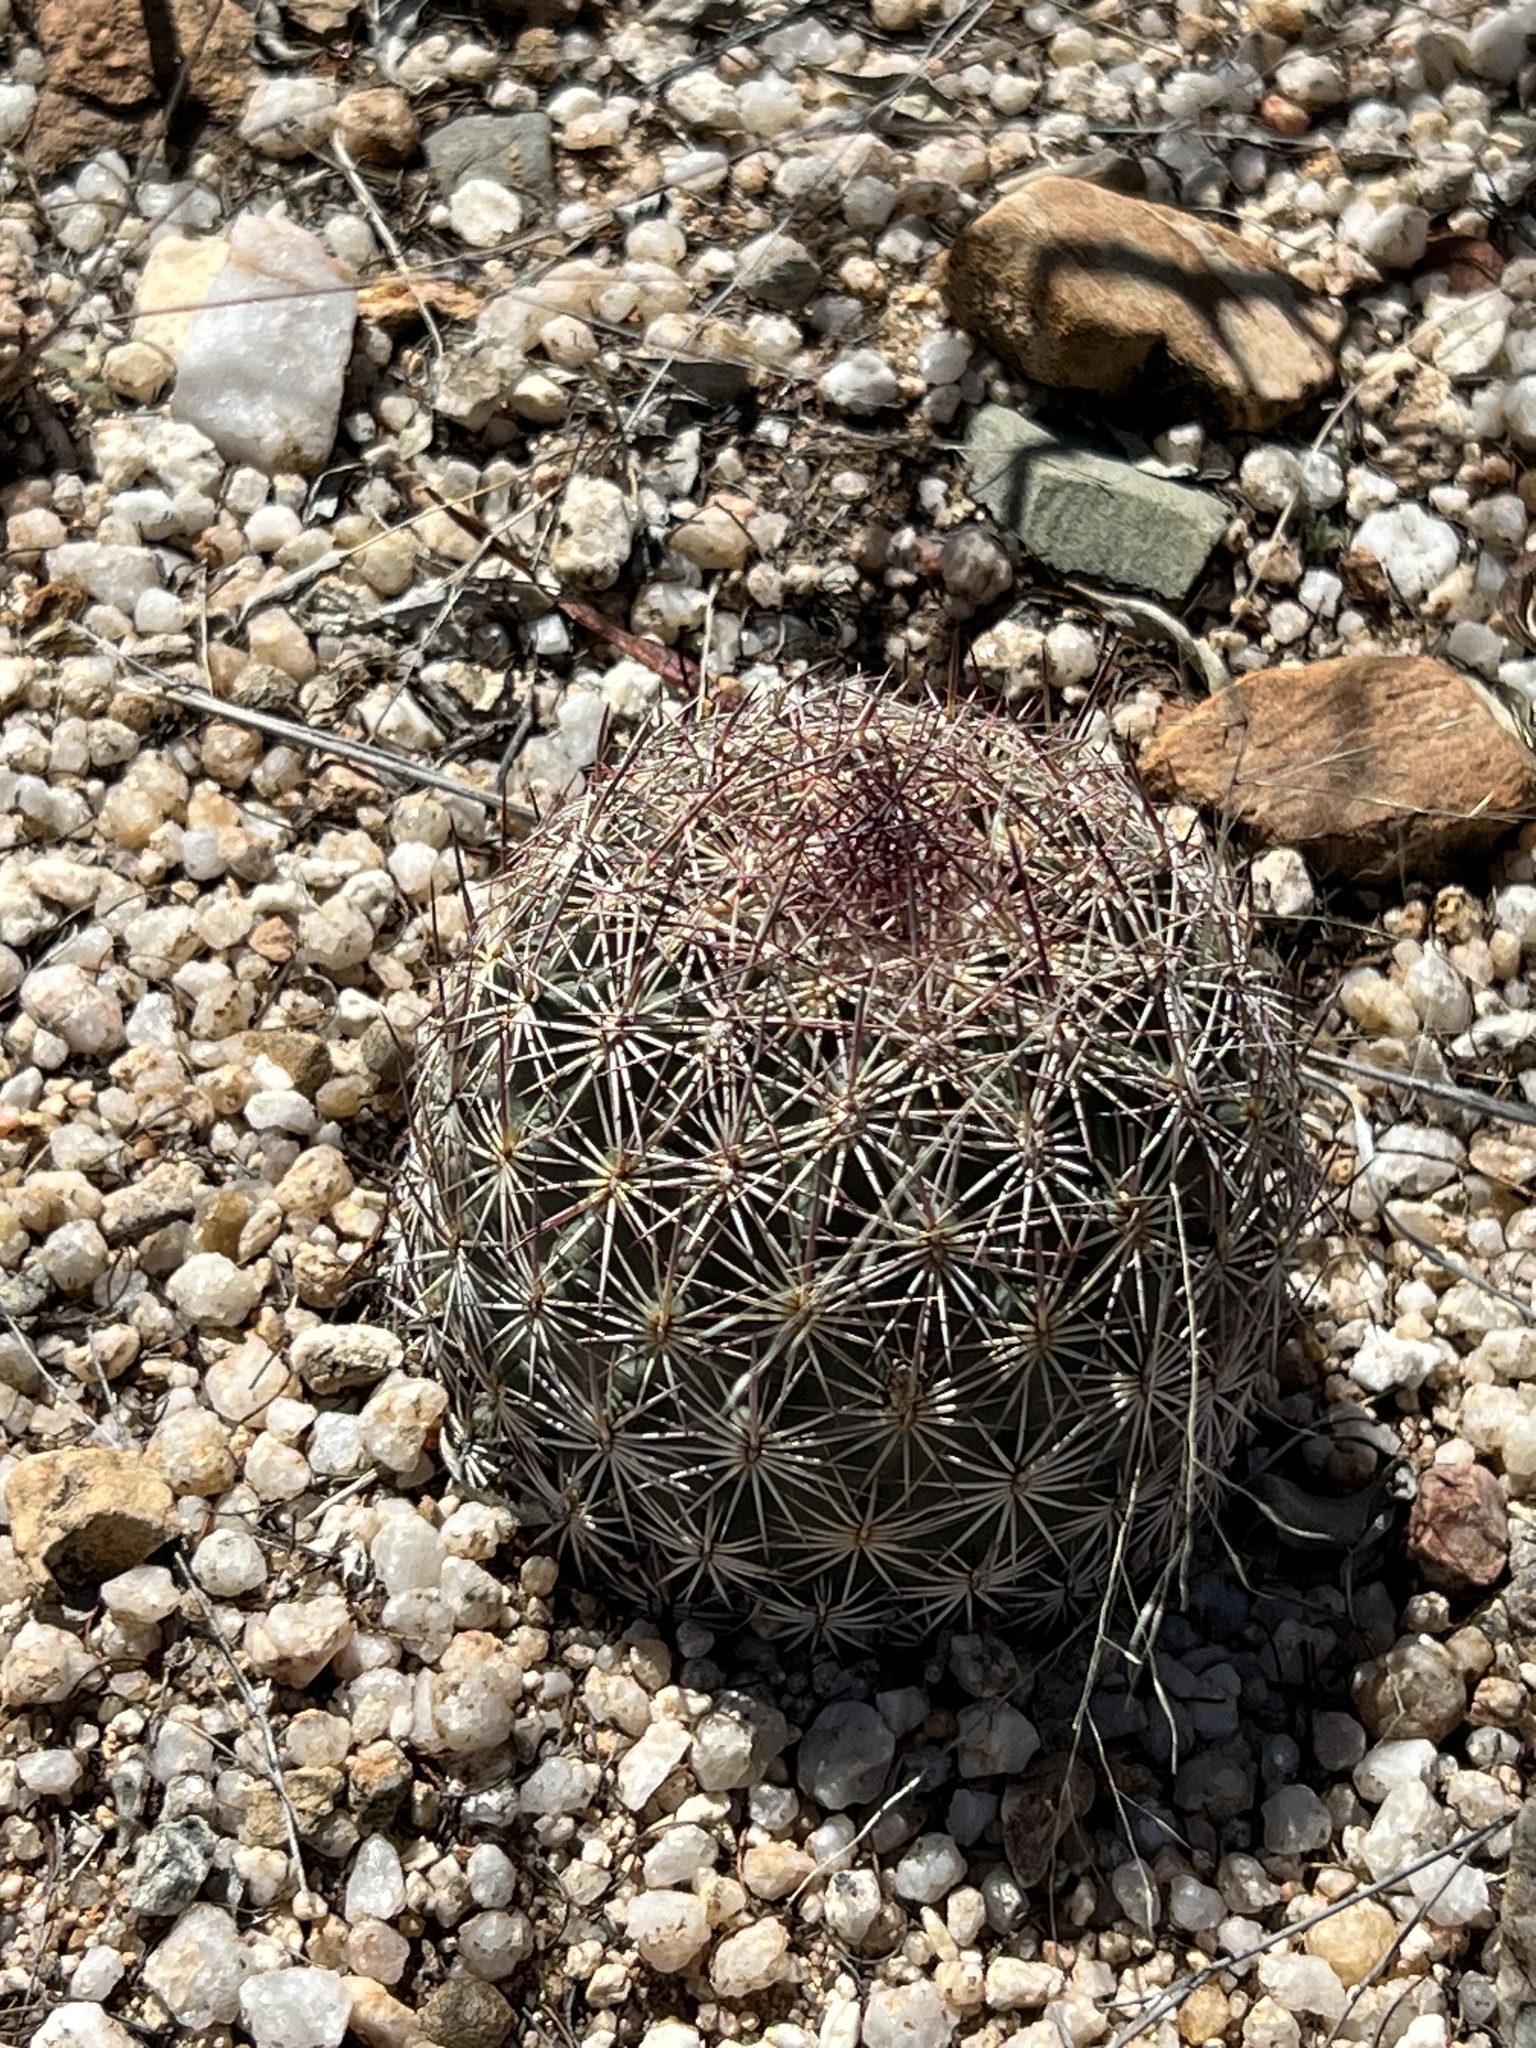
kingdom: Plantae
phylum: Tracheophyta
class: Magnoliopsida
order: Caryophyllales
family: Cactaceae
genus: Sclerocactus
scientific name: Sclerocactus johnsonii
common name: Eight-spine fishhook cactus
